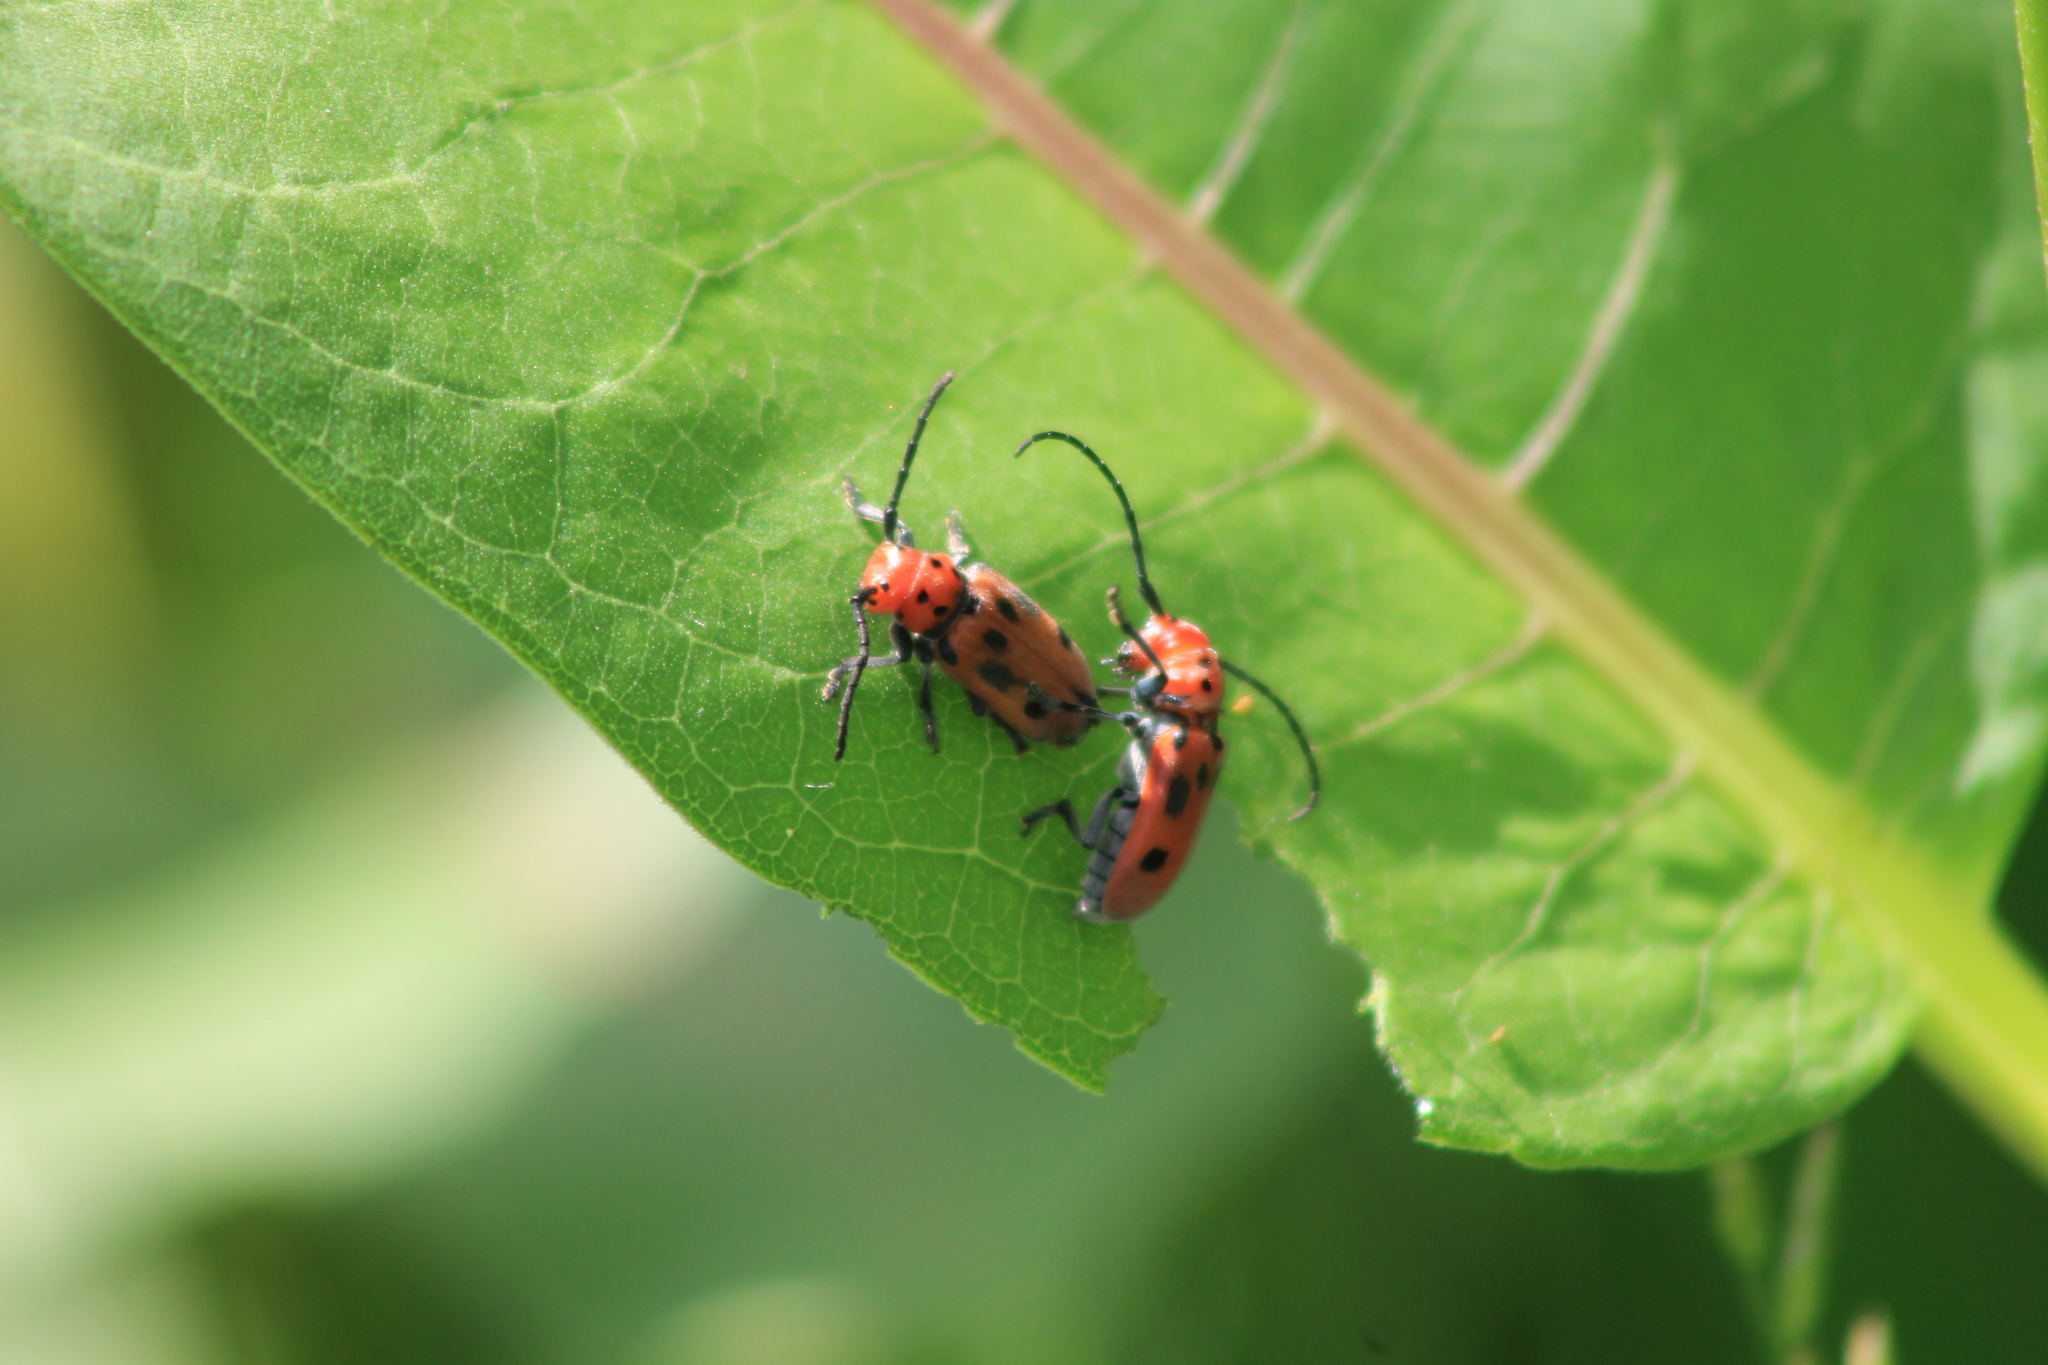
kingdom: Animalia
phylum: Arthropoda
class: Insecta
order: Coleoptera
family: Cerambycidae
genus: Tetraopes
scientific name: Tetraopes tetrophthalmus
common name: Red milkweed beetle
